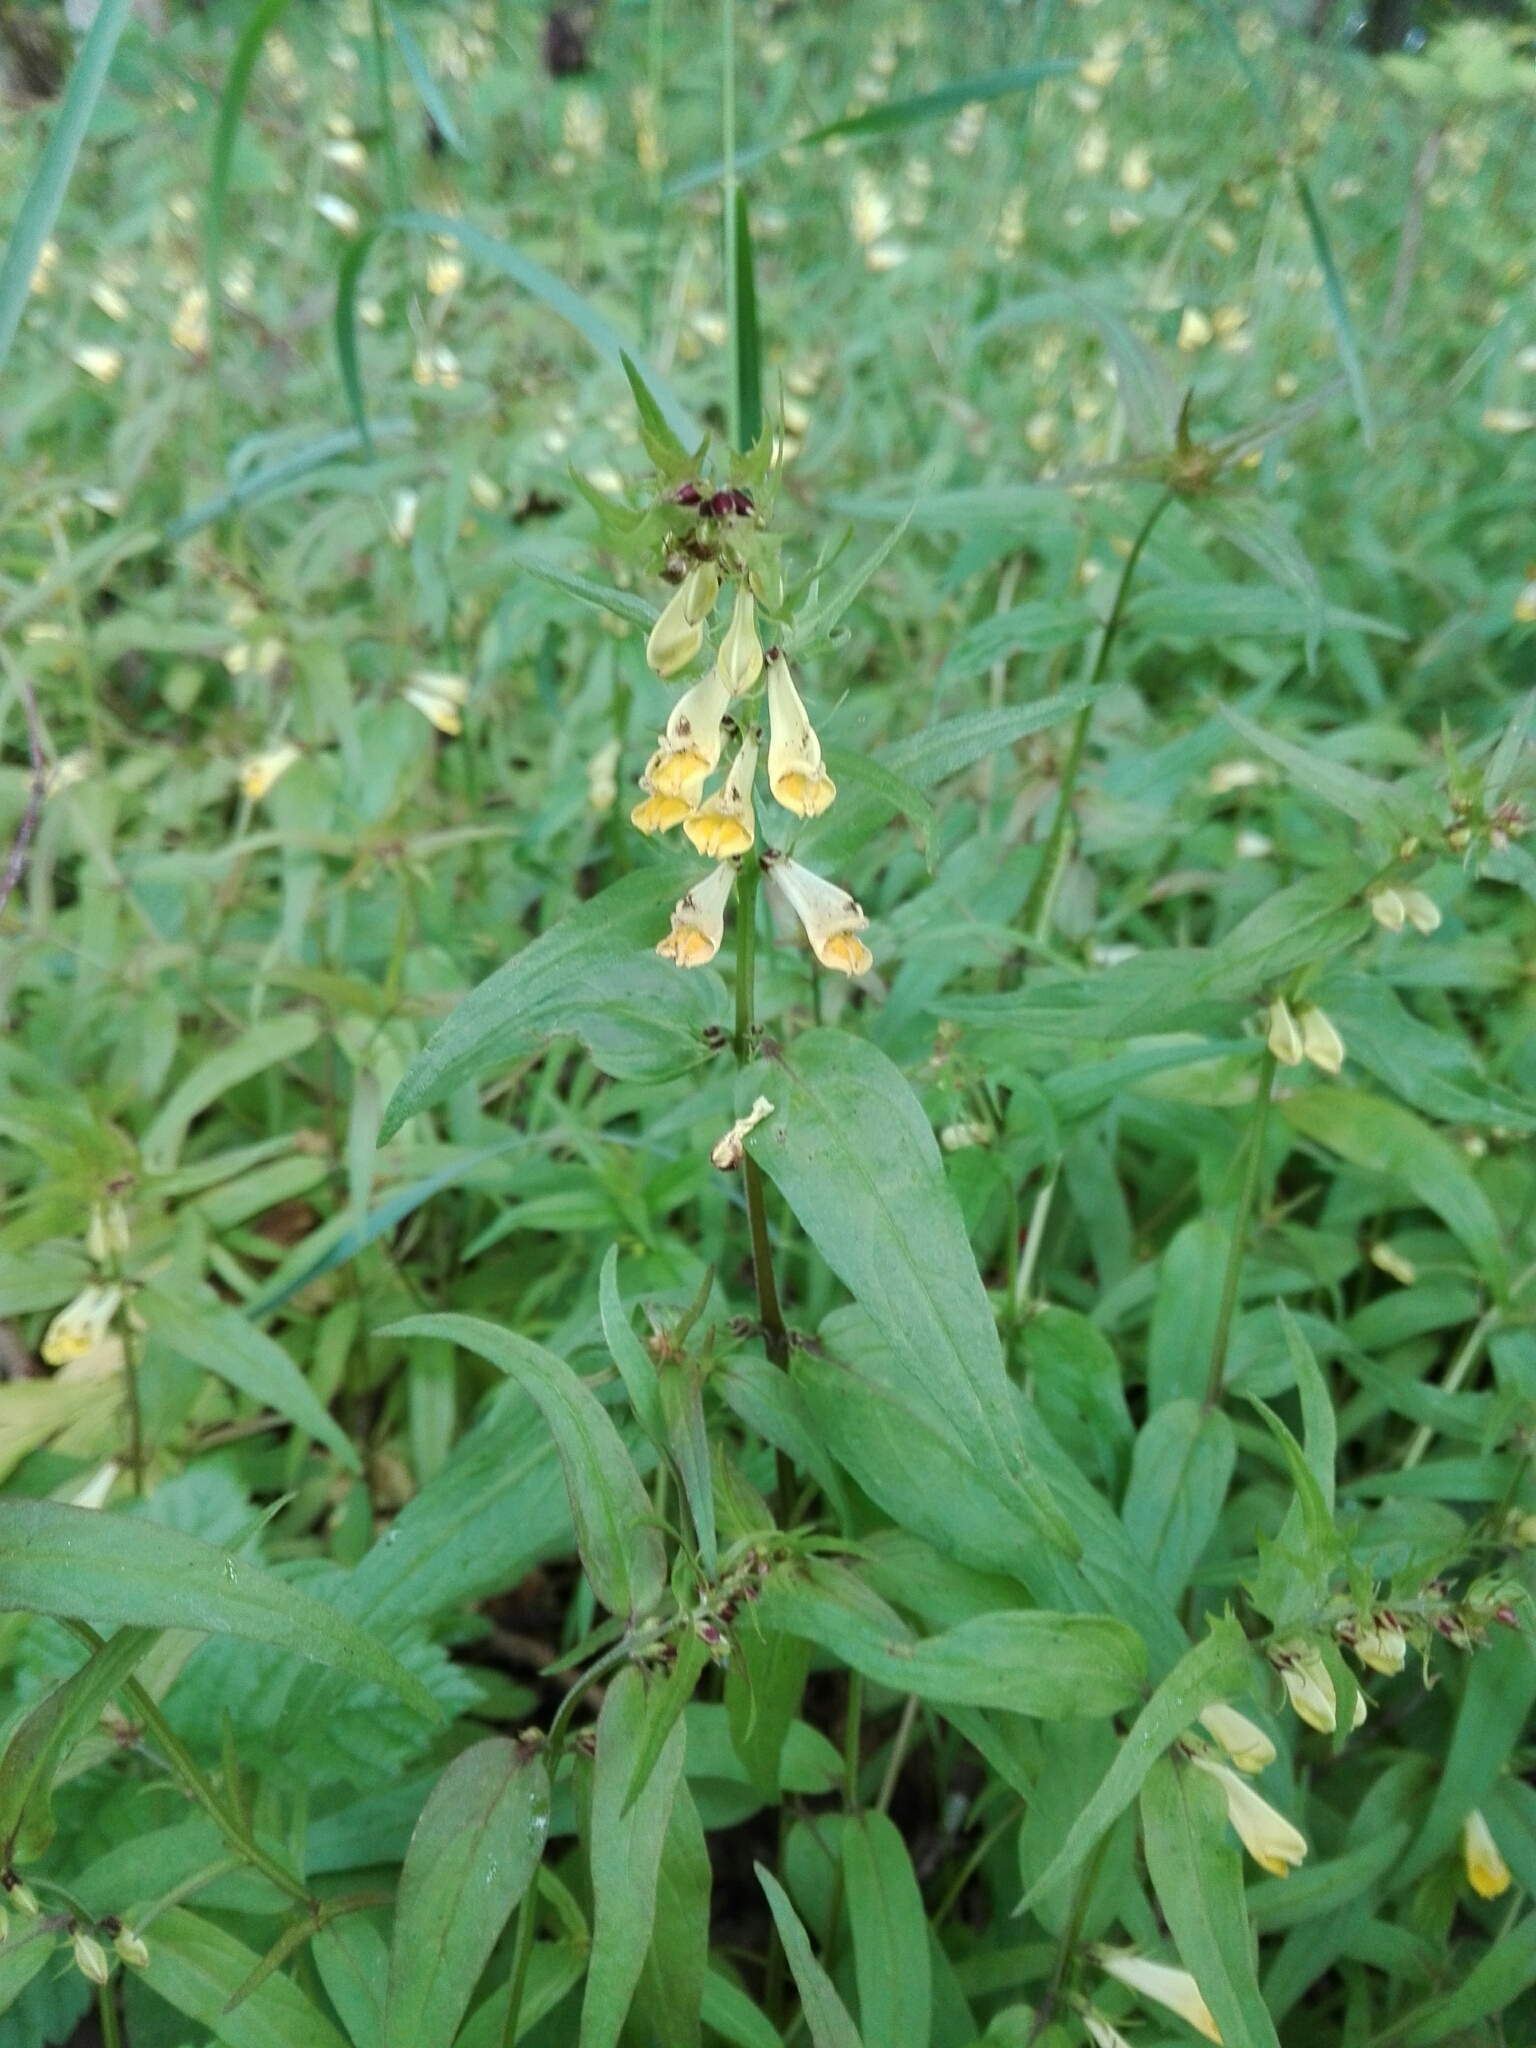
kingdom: Plantae
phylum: Tracheophyta
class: Magnoliopsida
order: Lamiales
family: Orobanchaceae
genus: Melampyrum
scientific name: Melampyrum pratense
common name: Common cow-wheat
